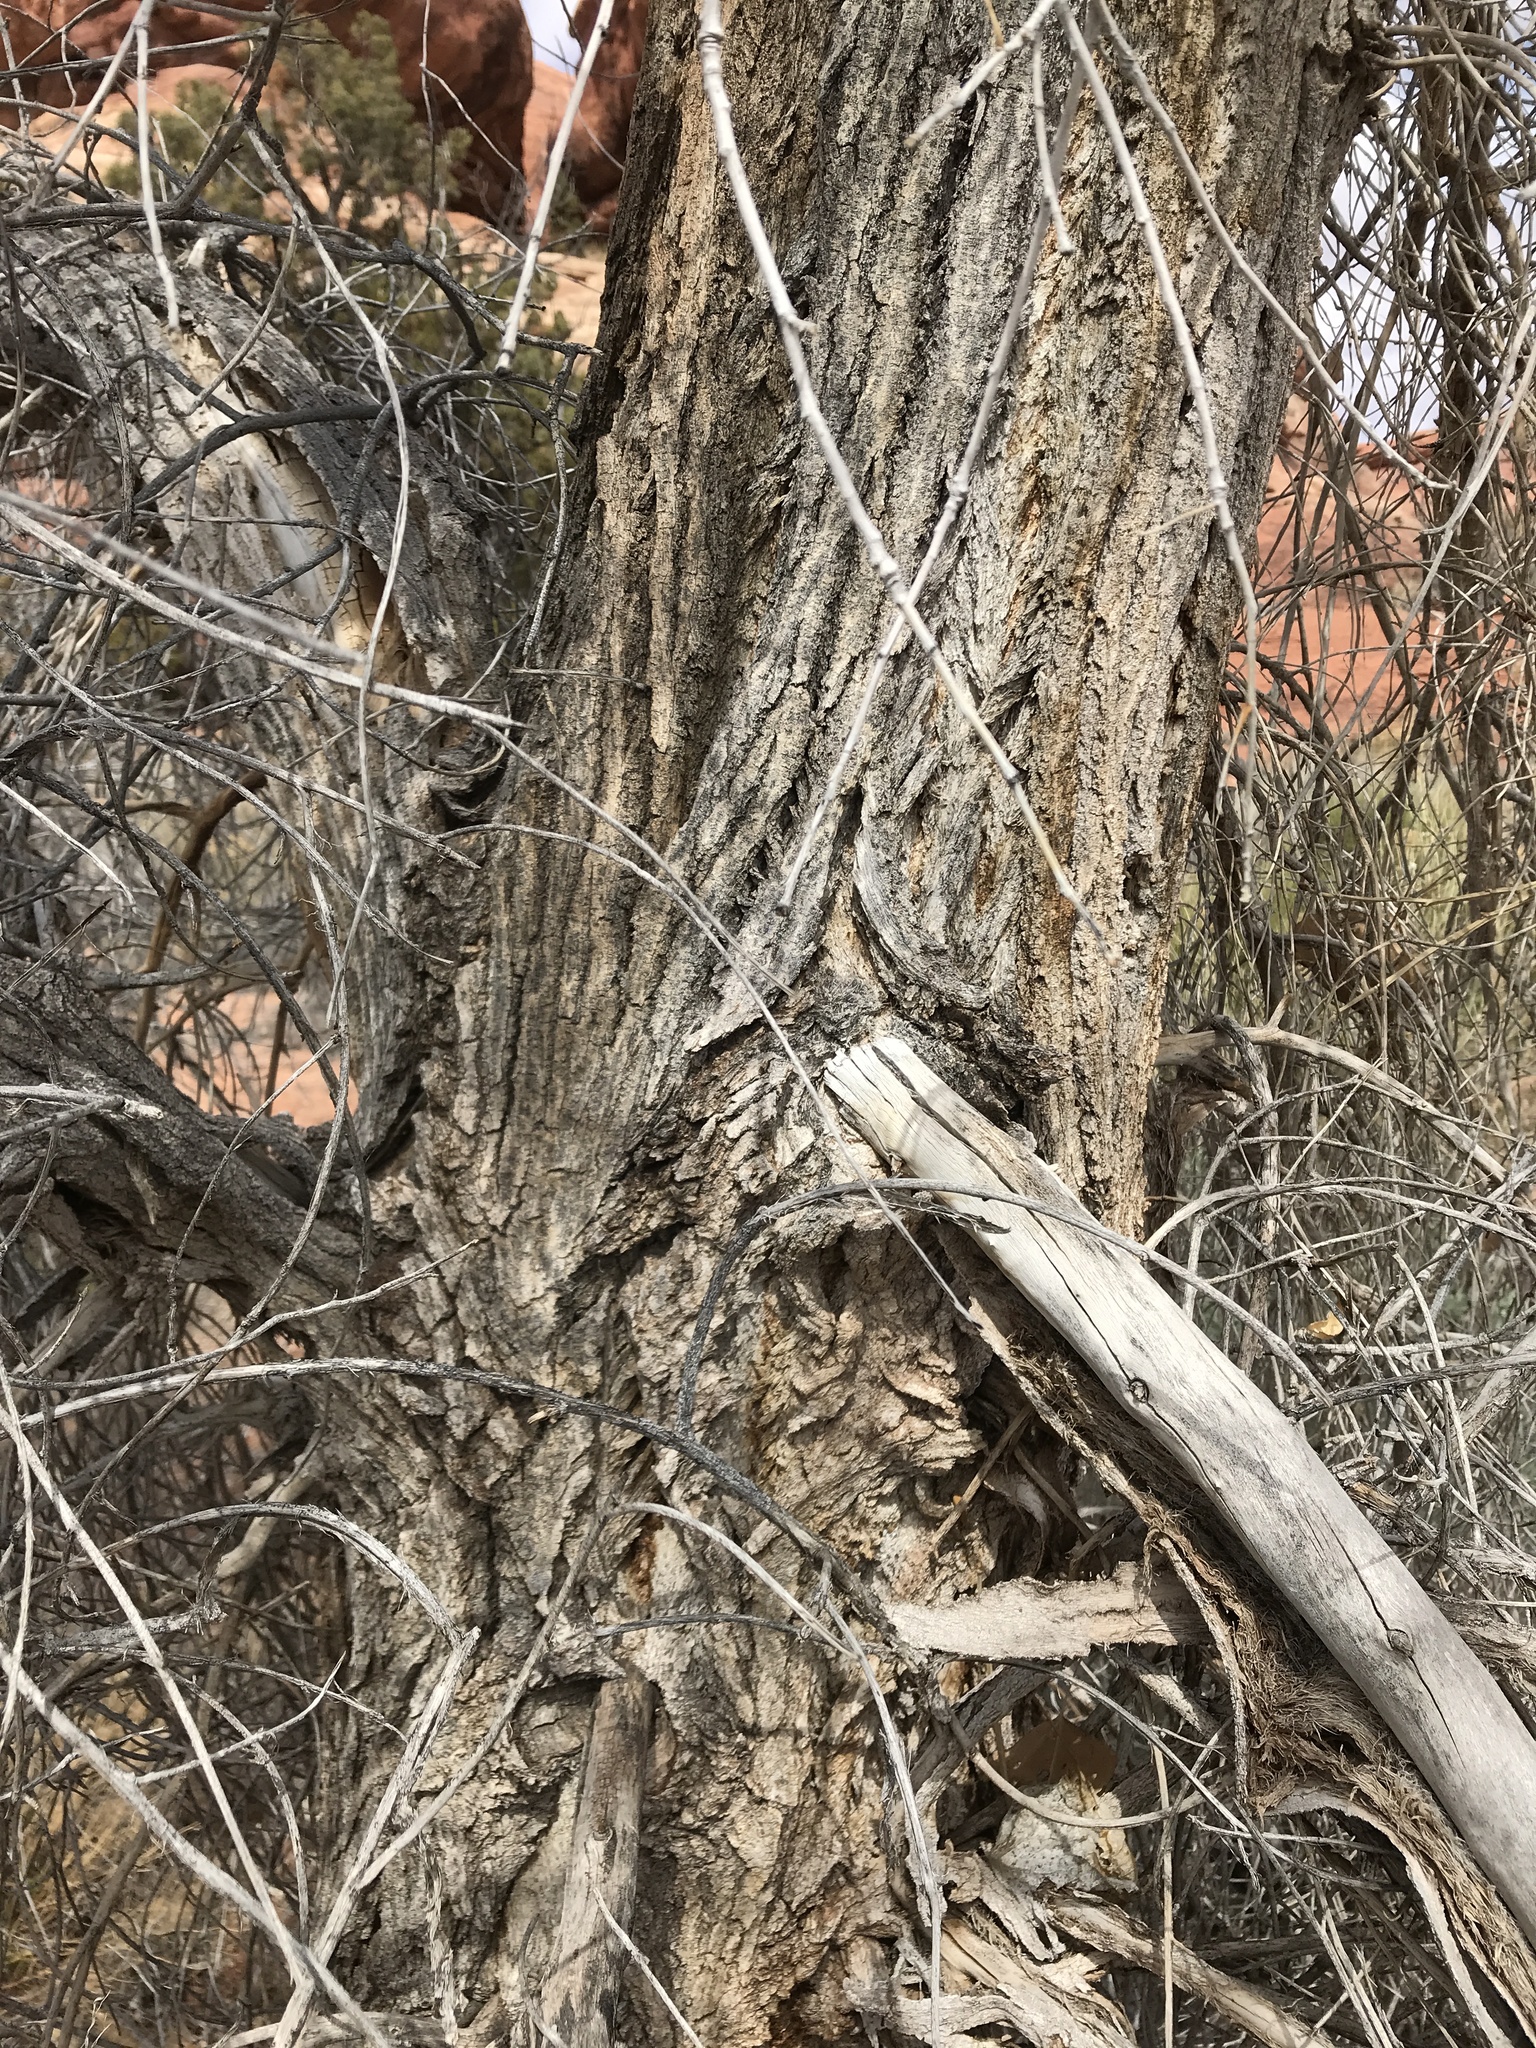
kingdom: Plantae
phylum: Tracheophyta
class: Magnoliopsida
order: Malpighiales
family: Salicaceae
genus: Populus
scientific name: Populus fremontii
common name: Fremont's cottonwood
